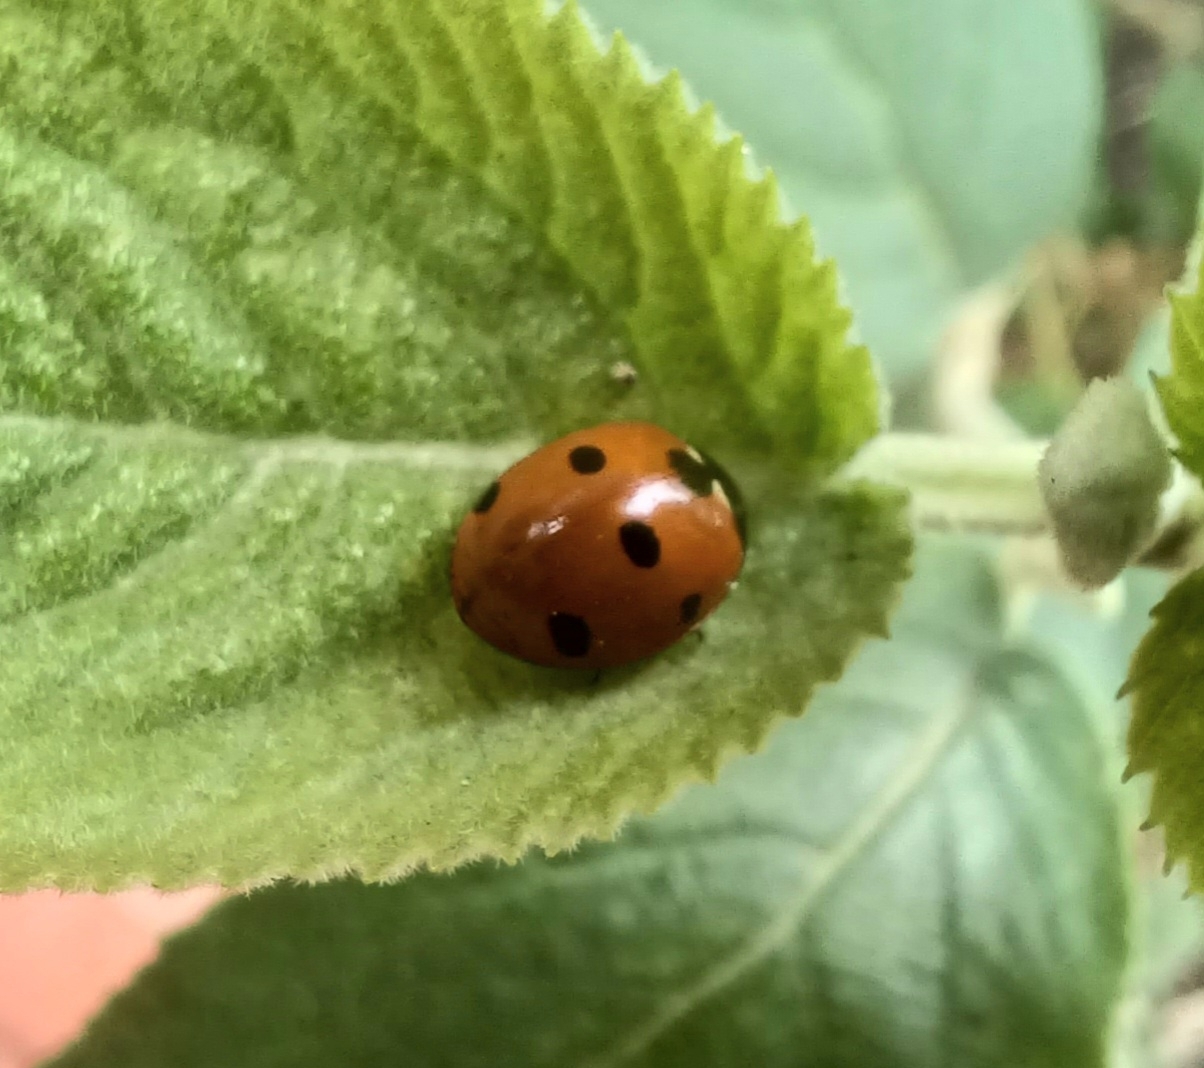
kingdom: Animalia
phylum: Arthropoda
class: Insecta
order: Coleoptera
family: Coccinellidae
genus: Coccinella
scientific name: Coccinella septempunctata
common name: Sevenspotted lady beetle
